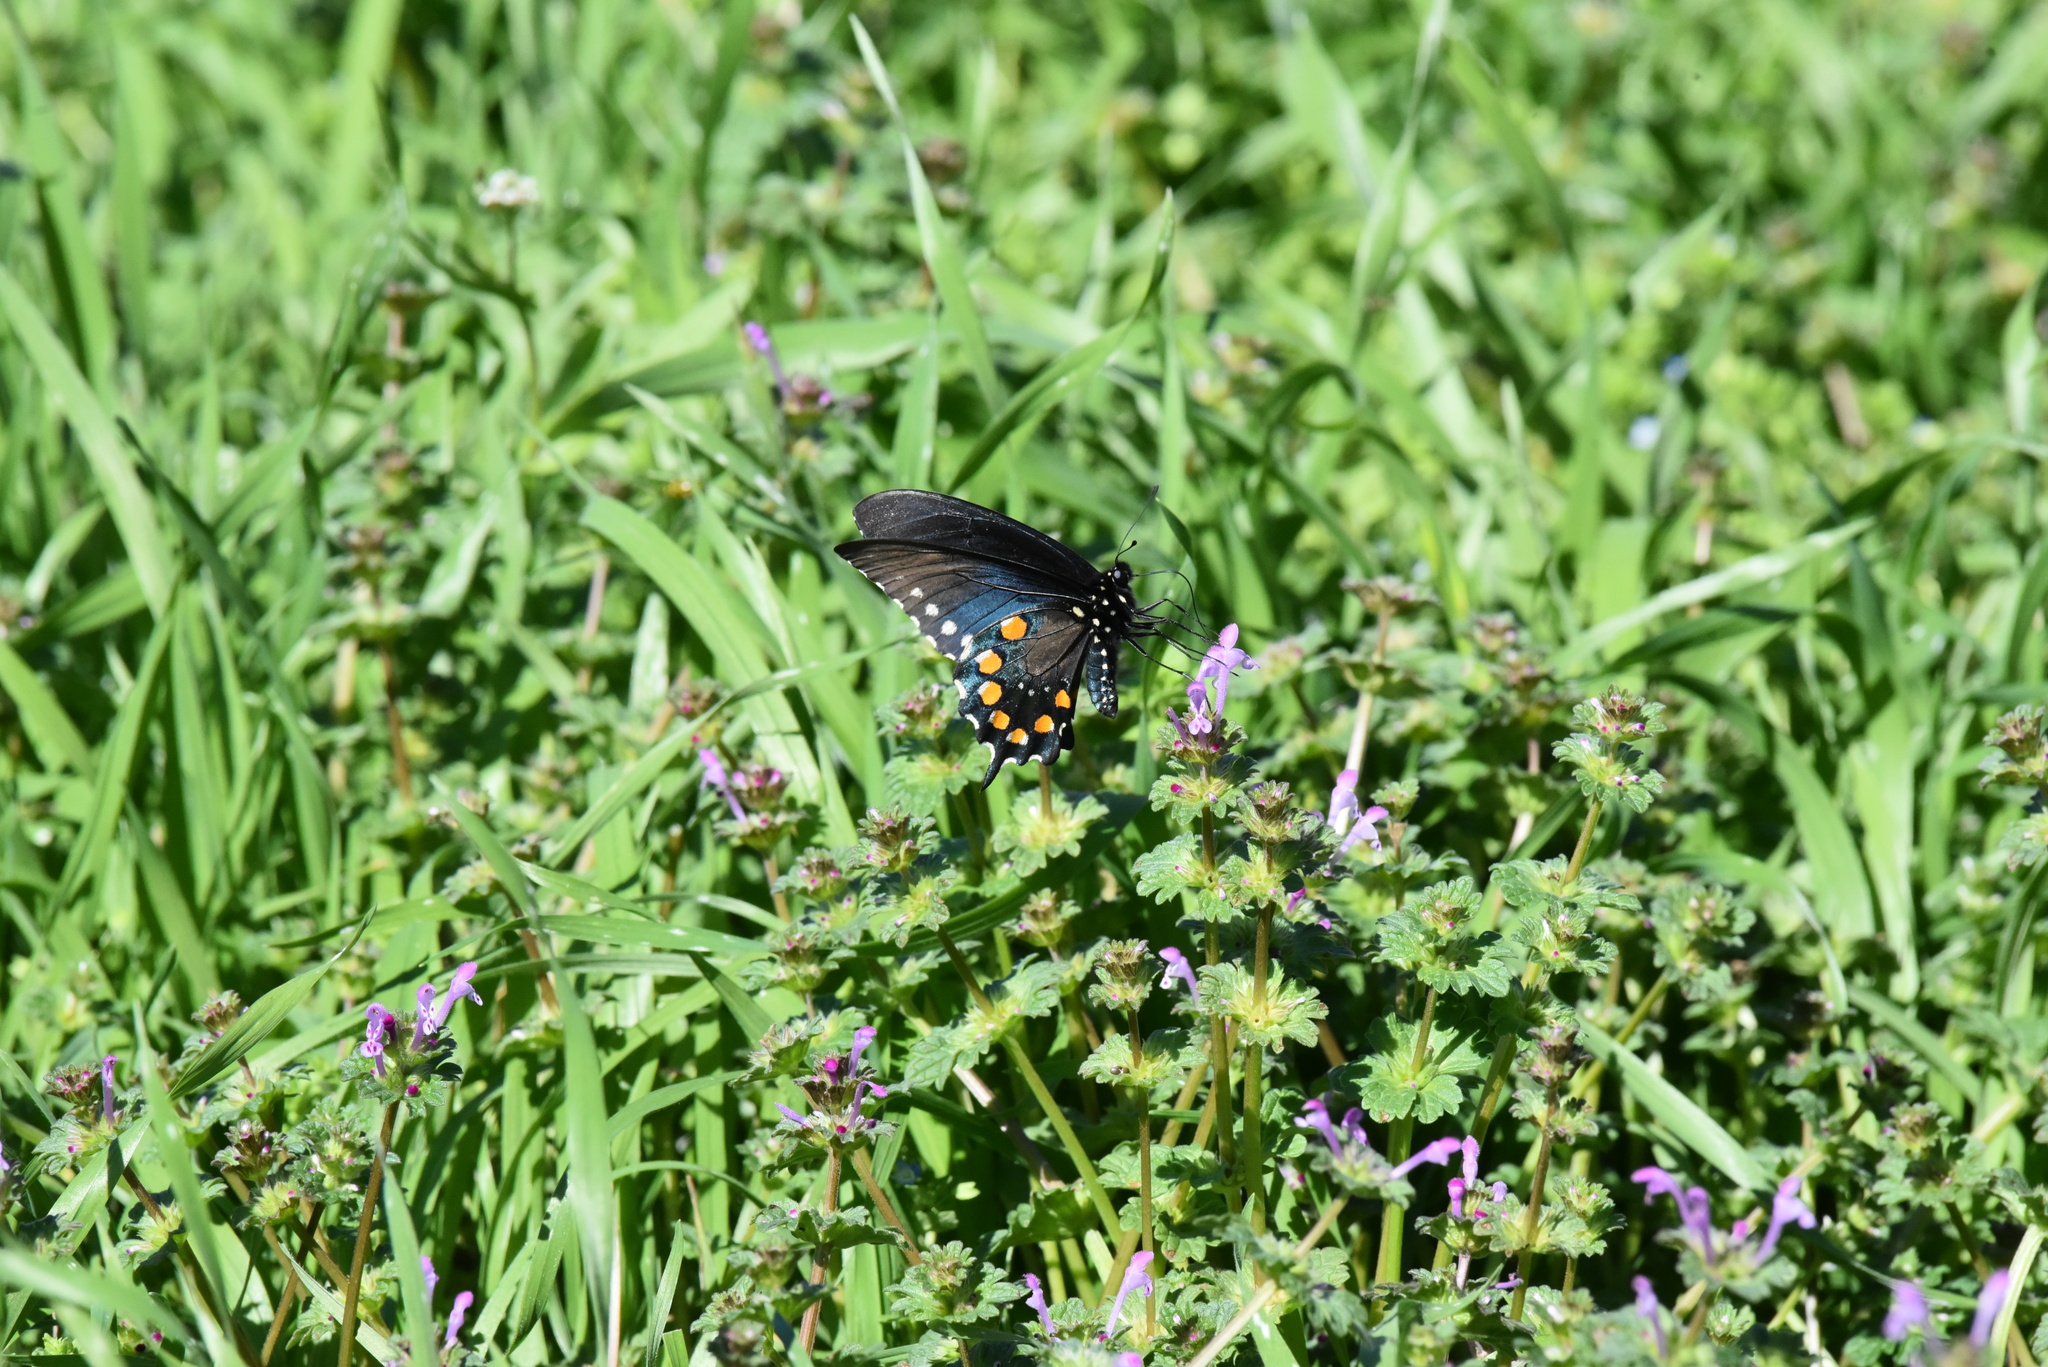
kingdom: Animalia
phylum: Arthropoda
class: Insecta
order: Lepidoptera
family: Papilionidae
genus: Battus
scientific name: Battus philenor
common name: Pipevine swallowtail
